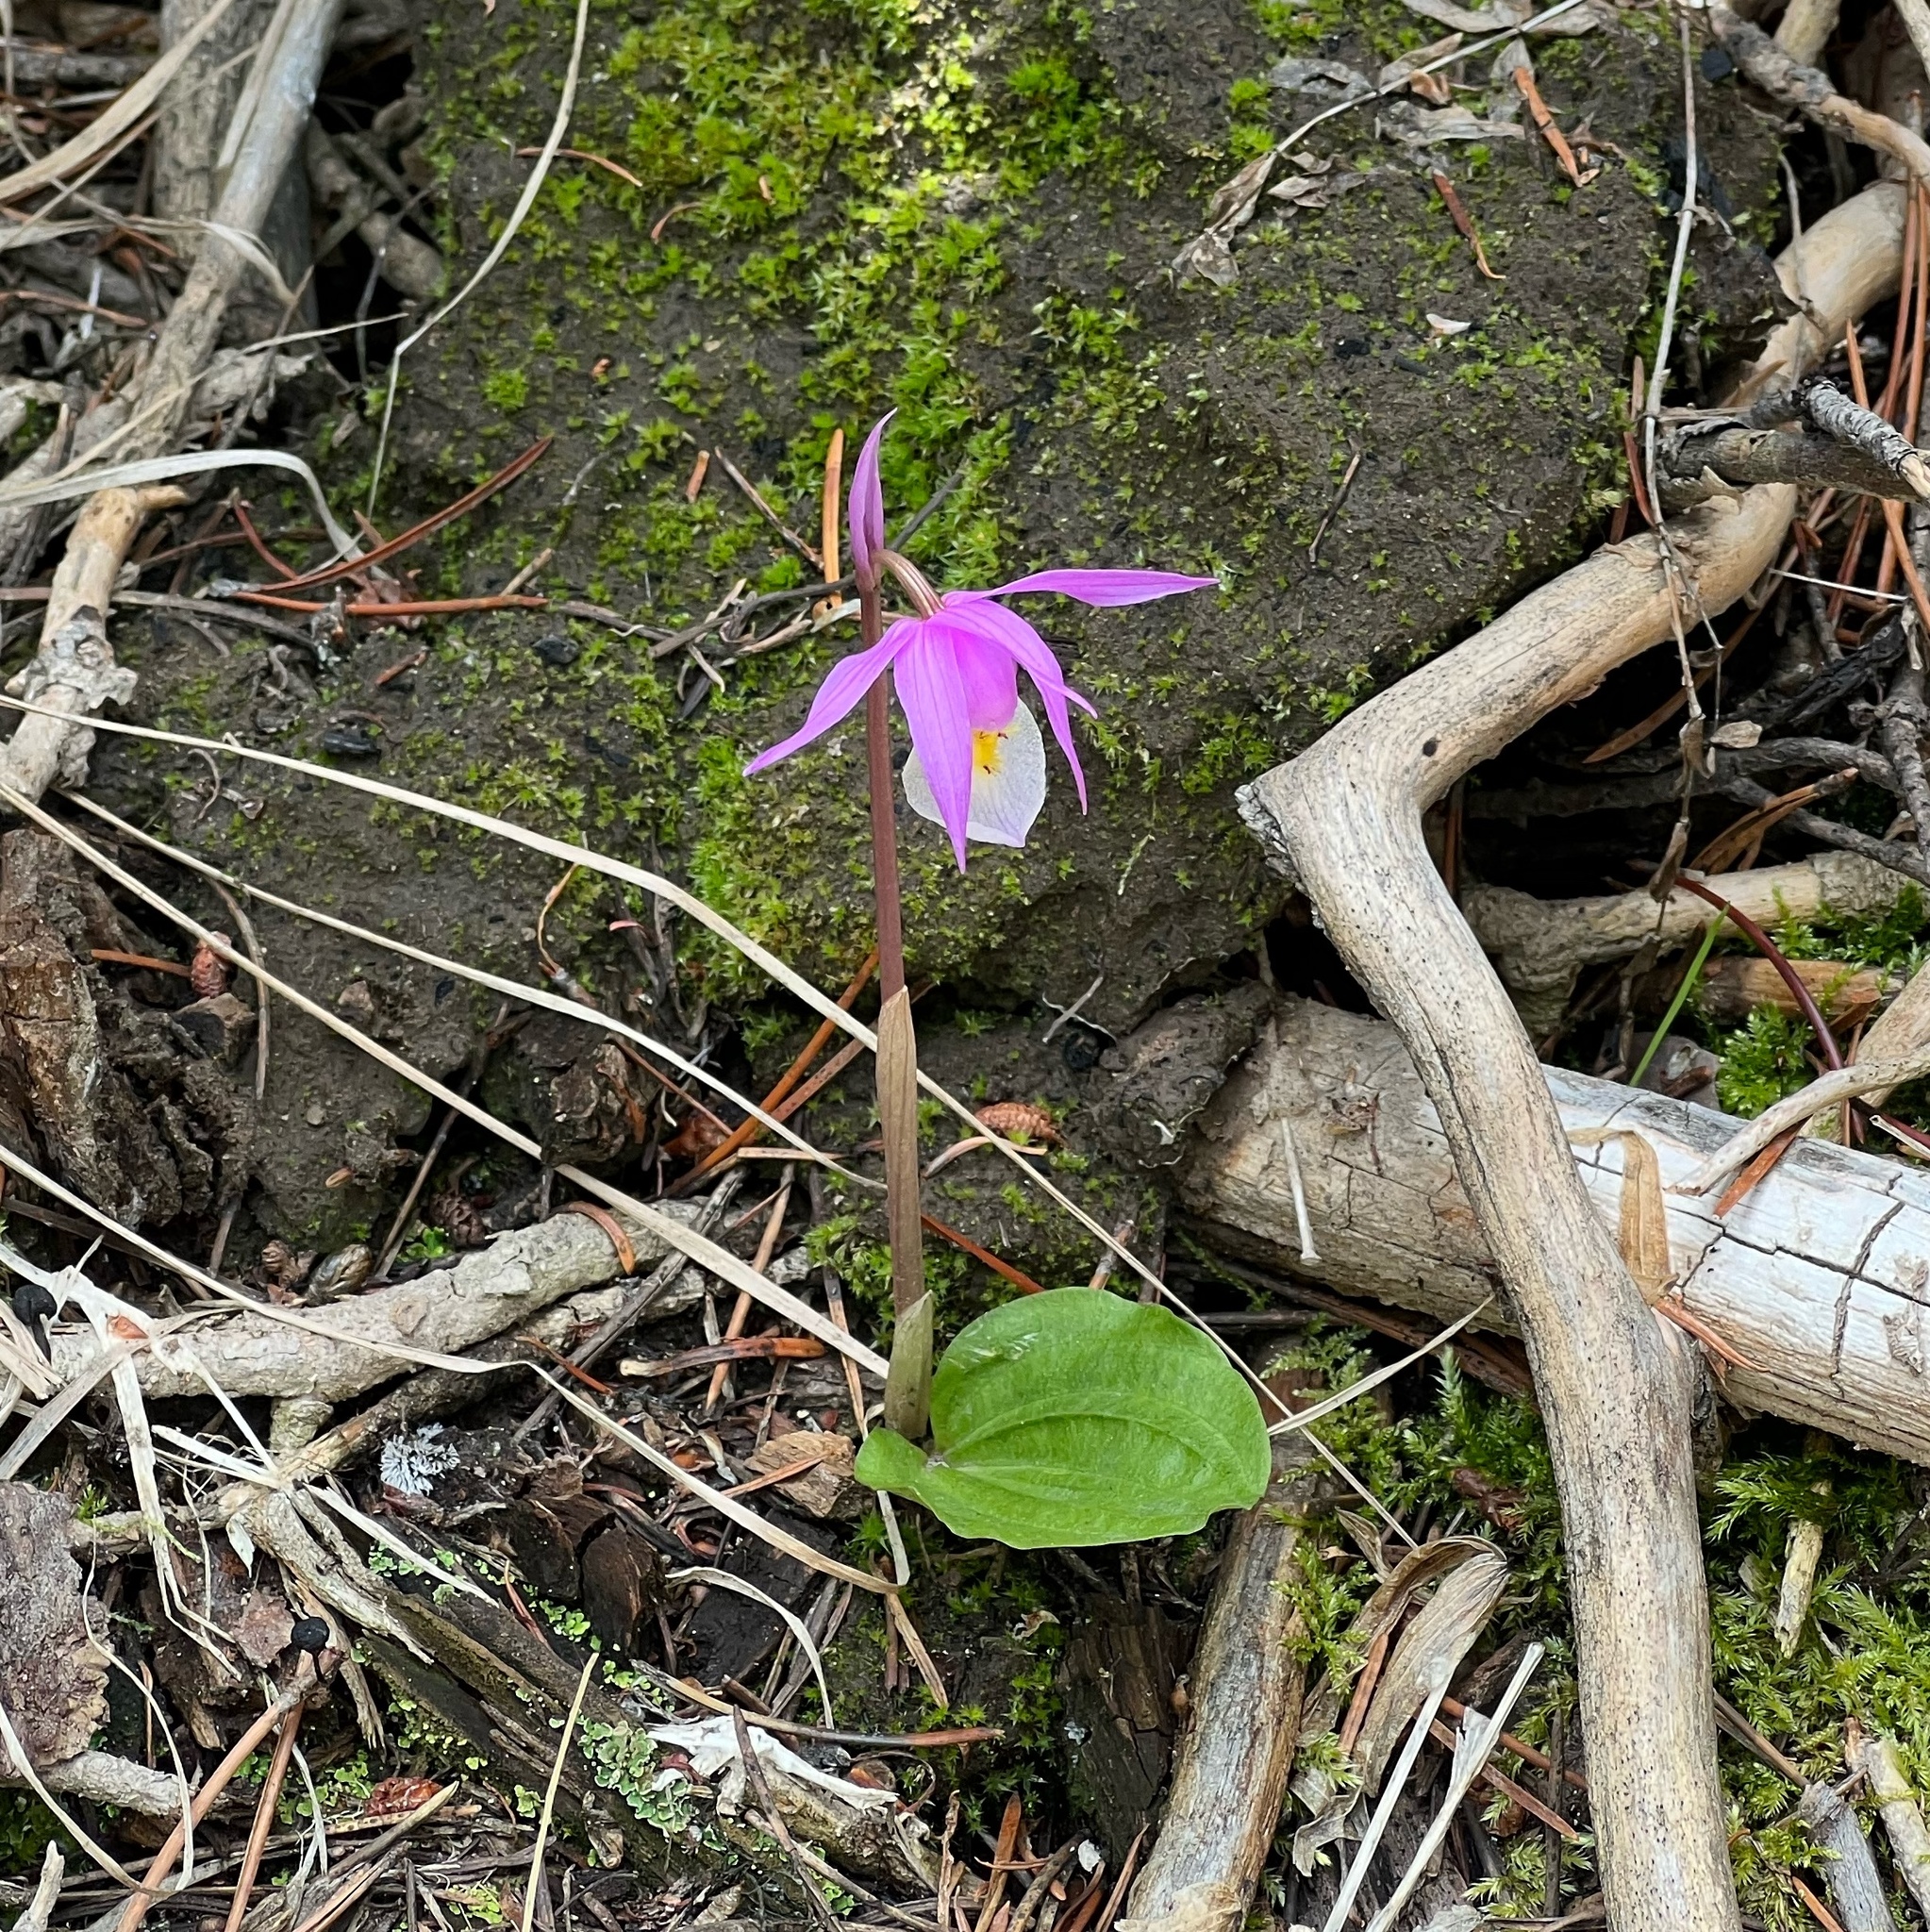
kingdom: Plantae
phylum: Tracheophyta
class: Liliopsida
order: Asparagales
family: Orchidaceae
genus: Calypso
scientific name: Calypso bulbosa
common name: Calypso
